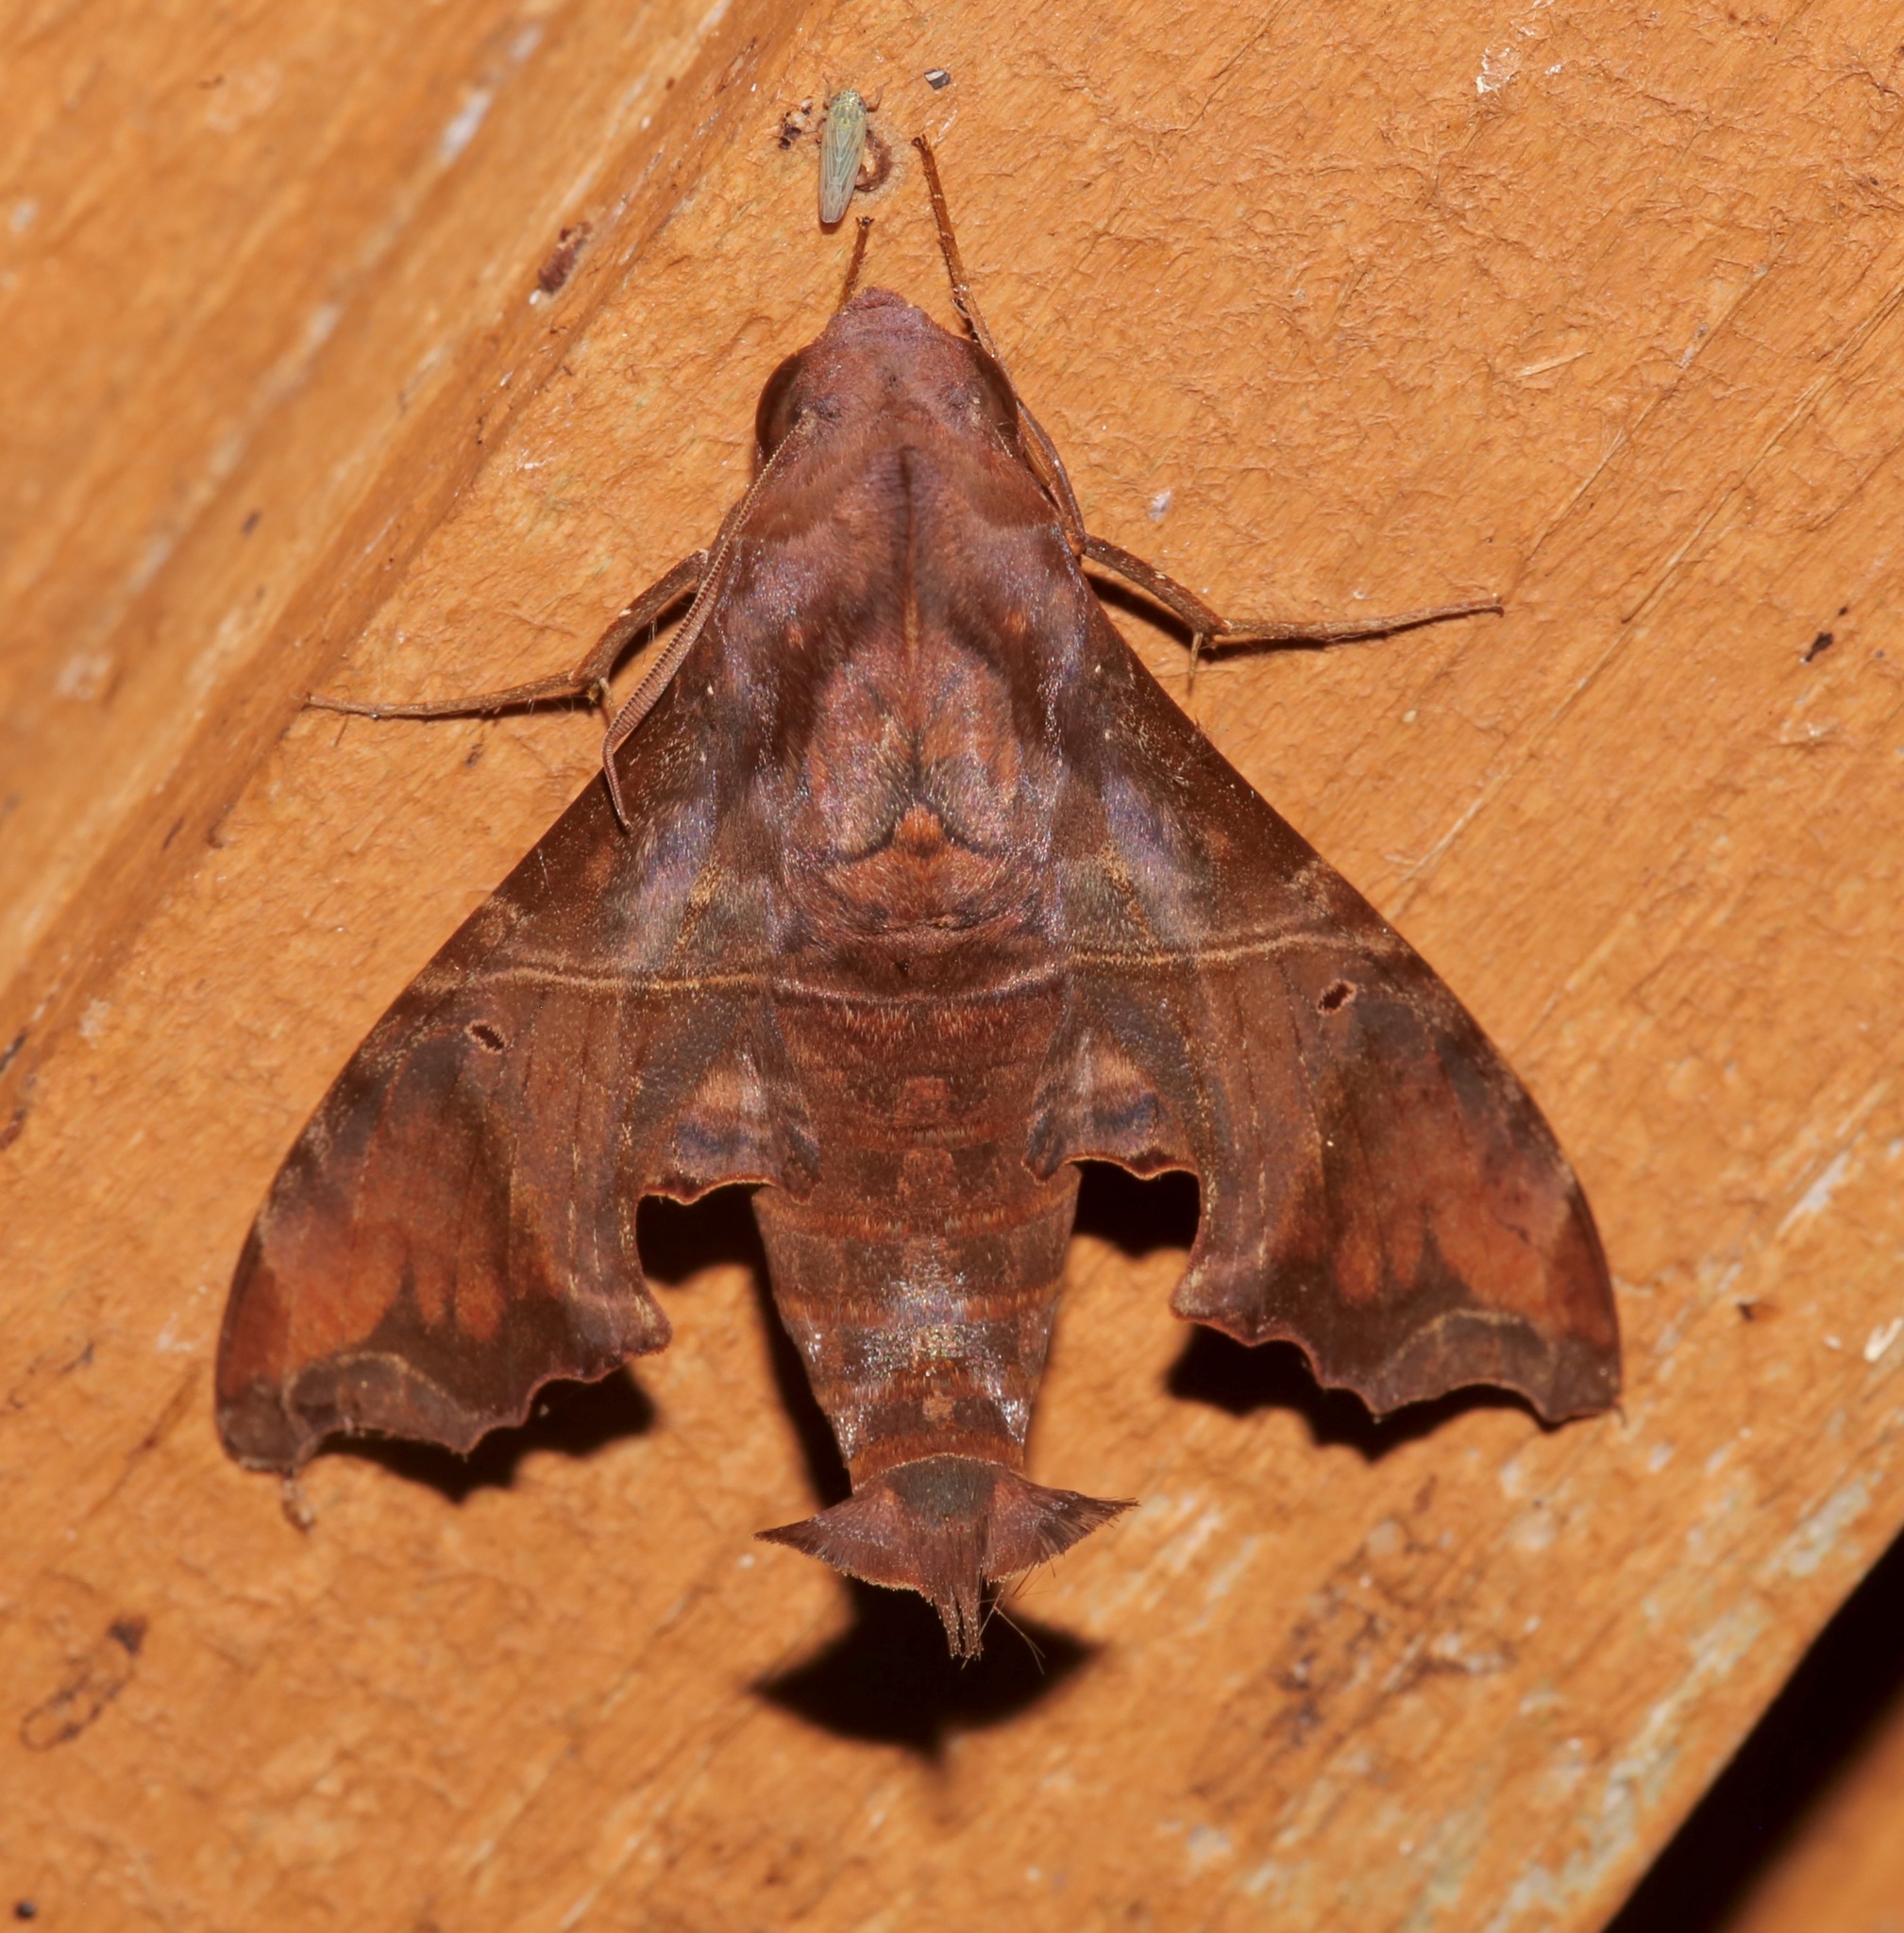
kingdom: Animalia
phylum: Arthropoda
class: Insecta
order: Lepidoptera
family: Sphingidae
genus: Enyo
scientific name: Enyo lugubris
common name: Mournful sphinx
